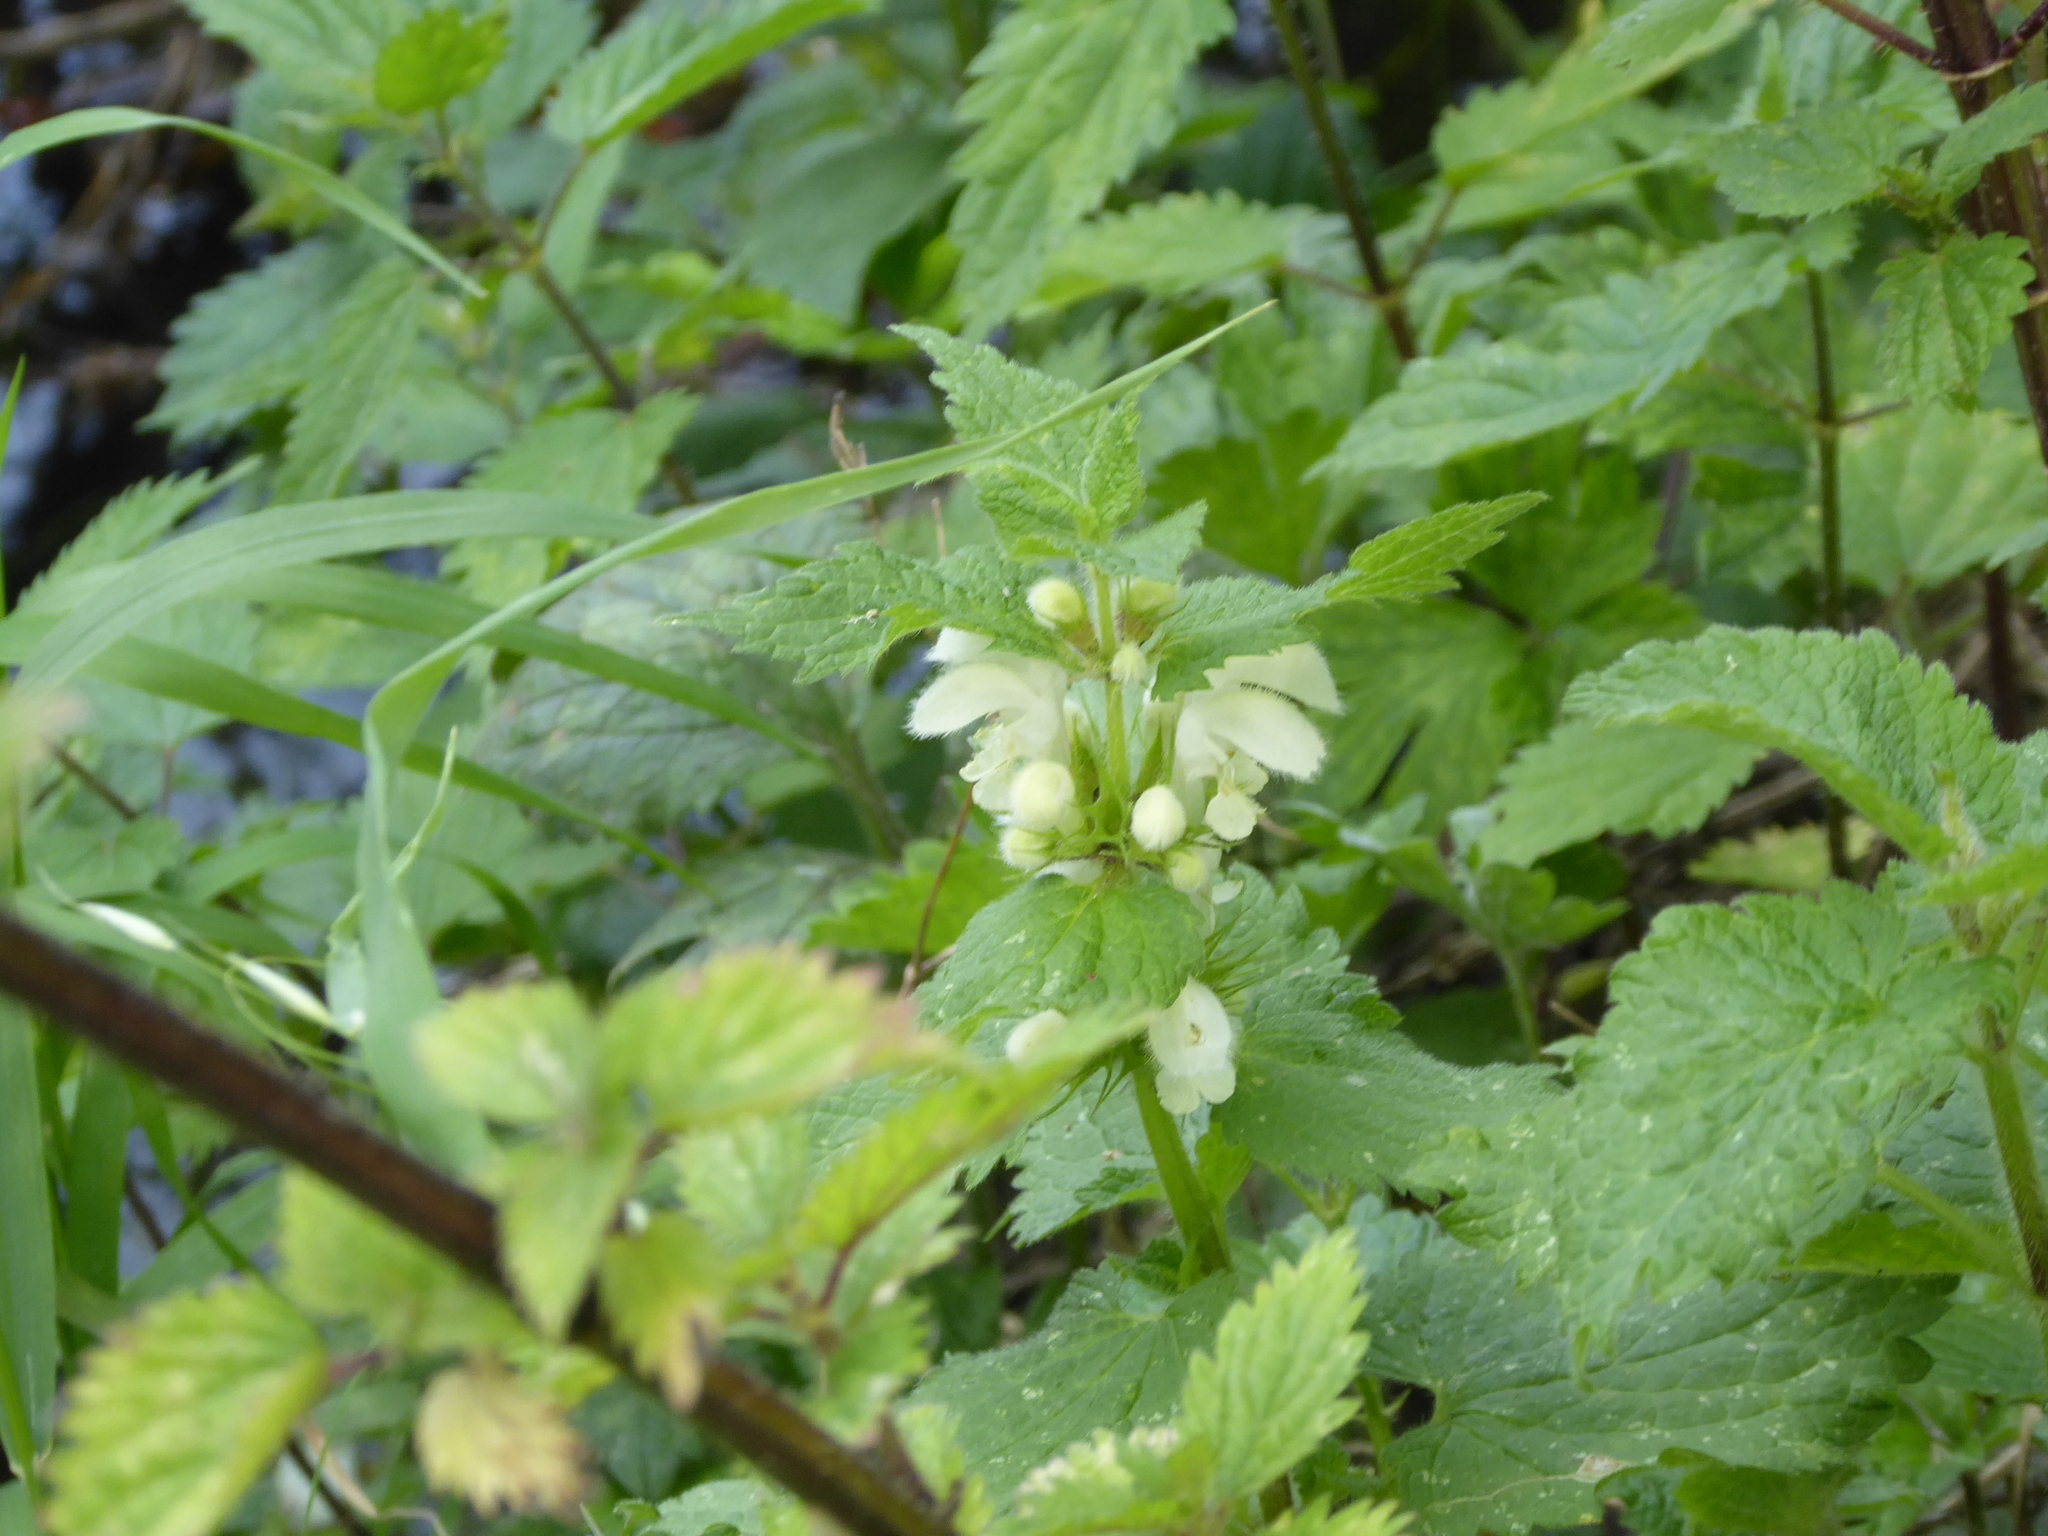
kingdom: Plantae
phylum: Tracheophyta
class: Magnoliopsida
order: Lamiales
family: Lamiaceae
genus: Lamium
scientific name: Lamium album
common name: White dead-nettle
